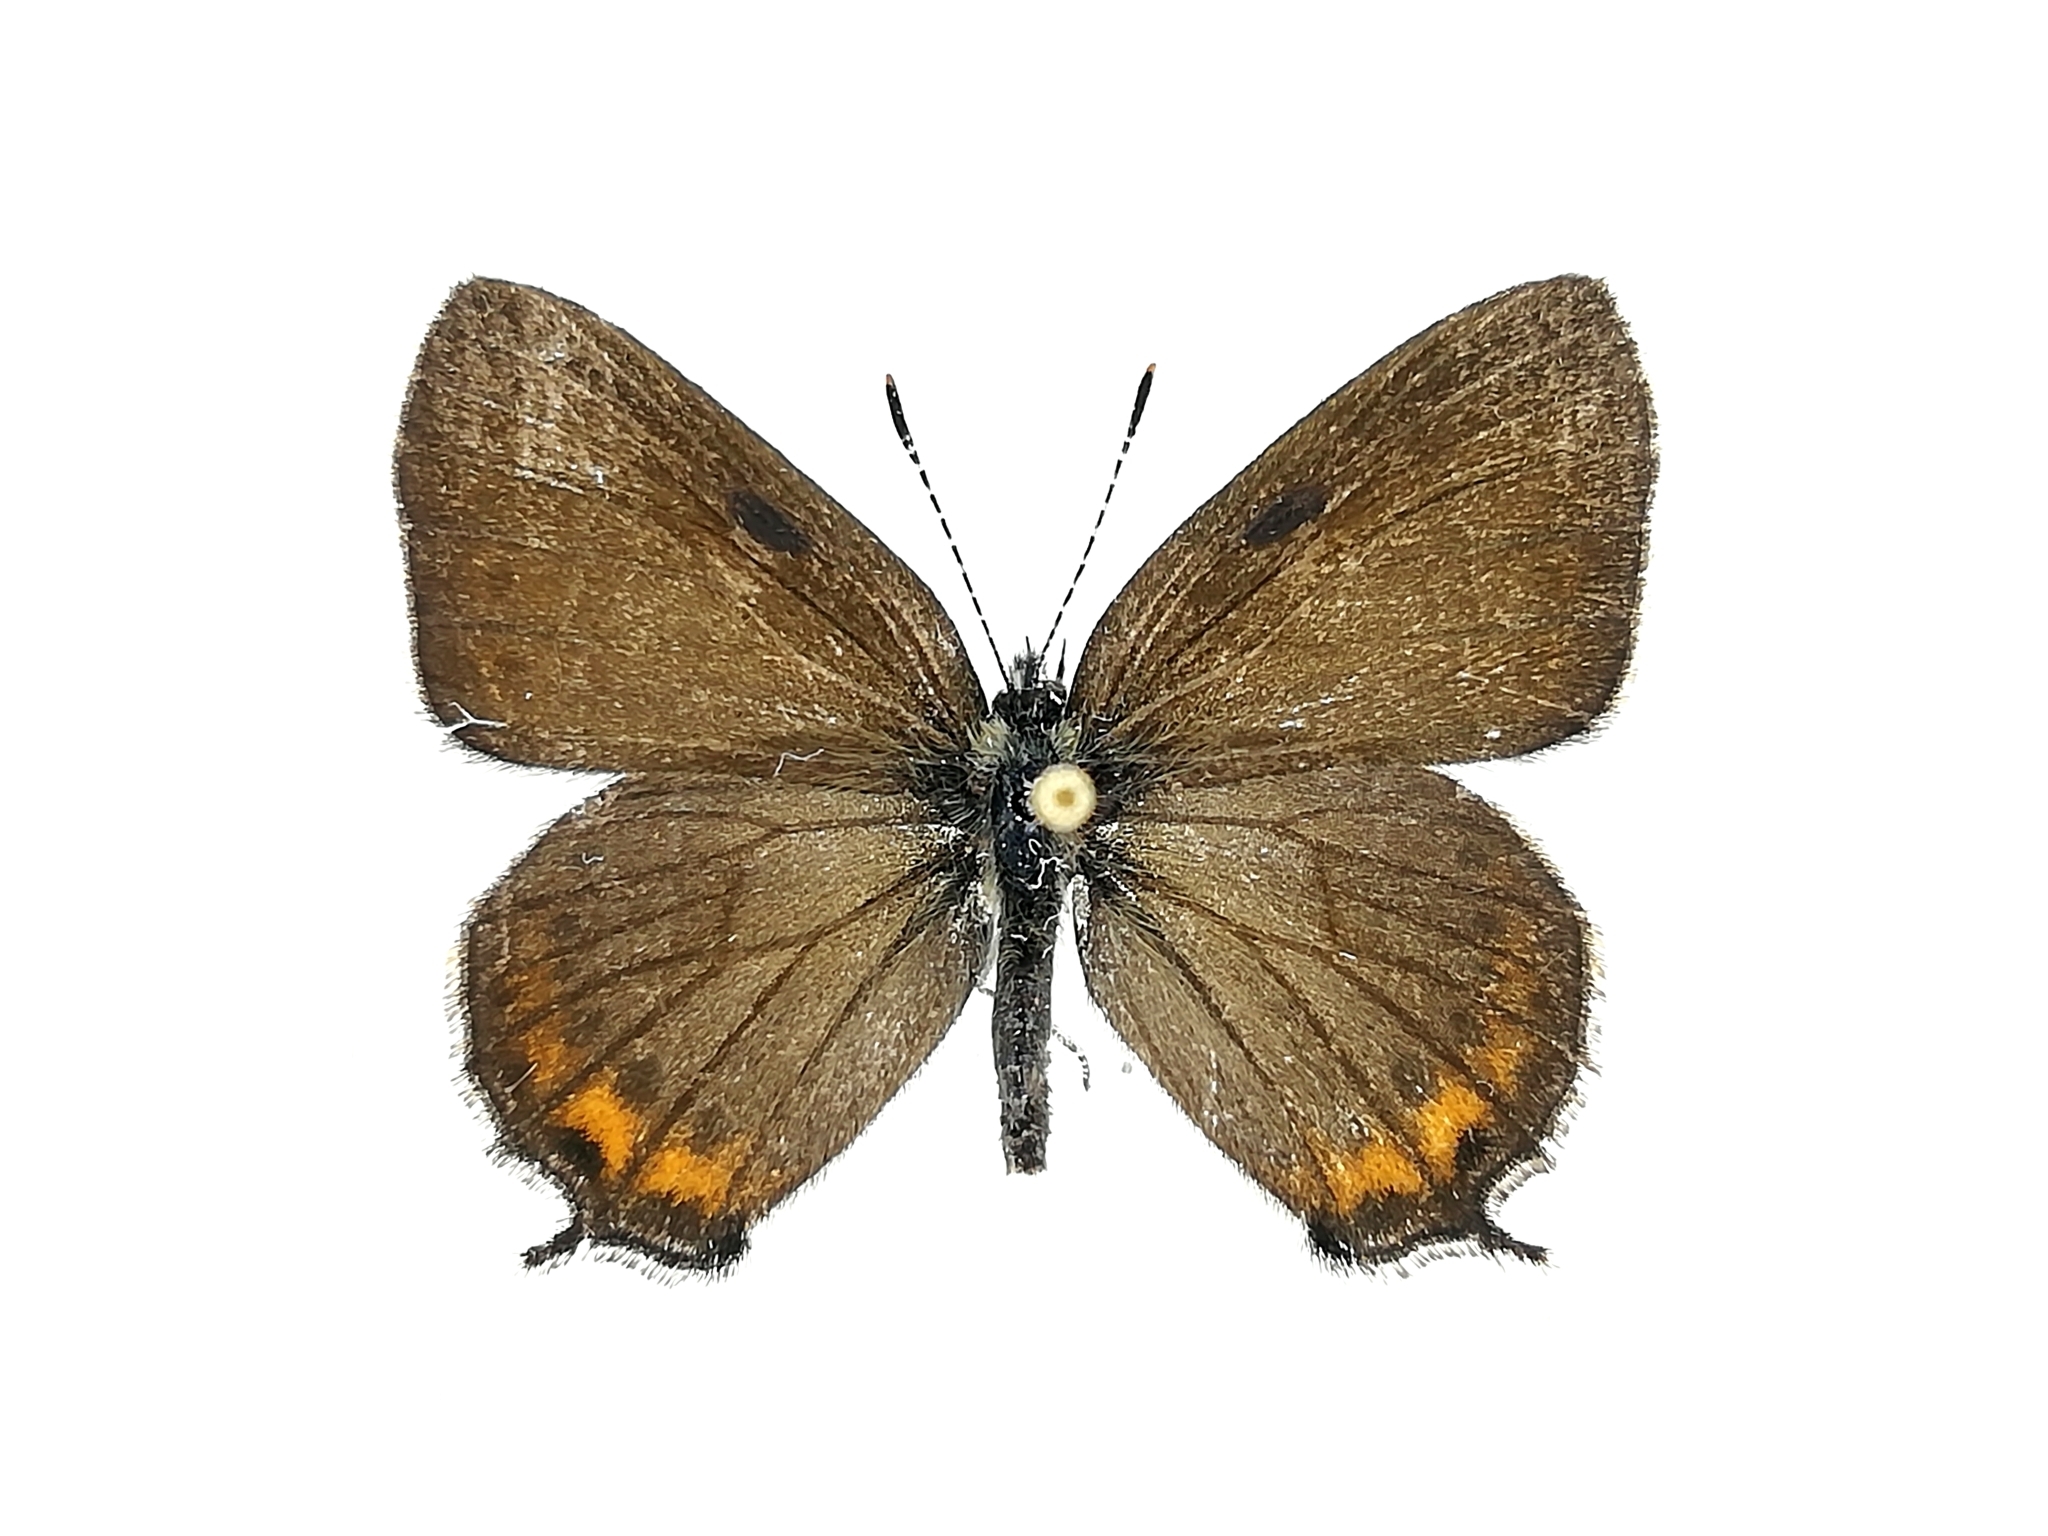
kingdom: Animalia
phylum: Arthropoda
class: Insecta
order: Lepidoptera
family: Lycaenidae
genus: Fixsenia
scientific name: Fixsenia pruni
